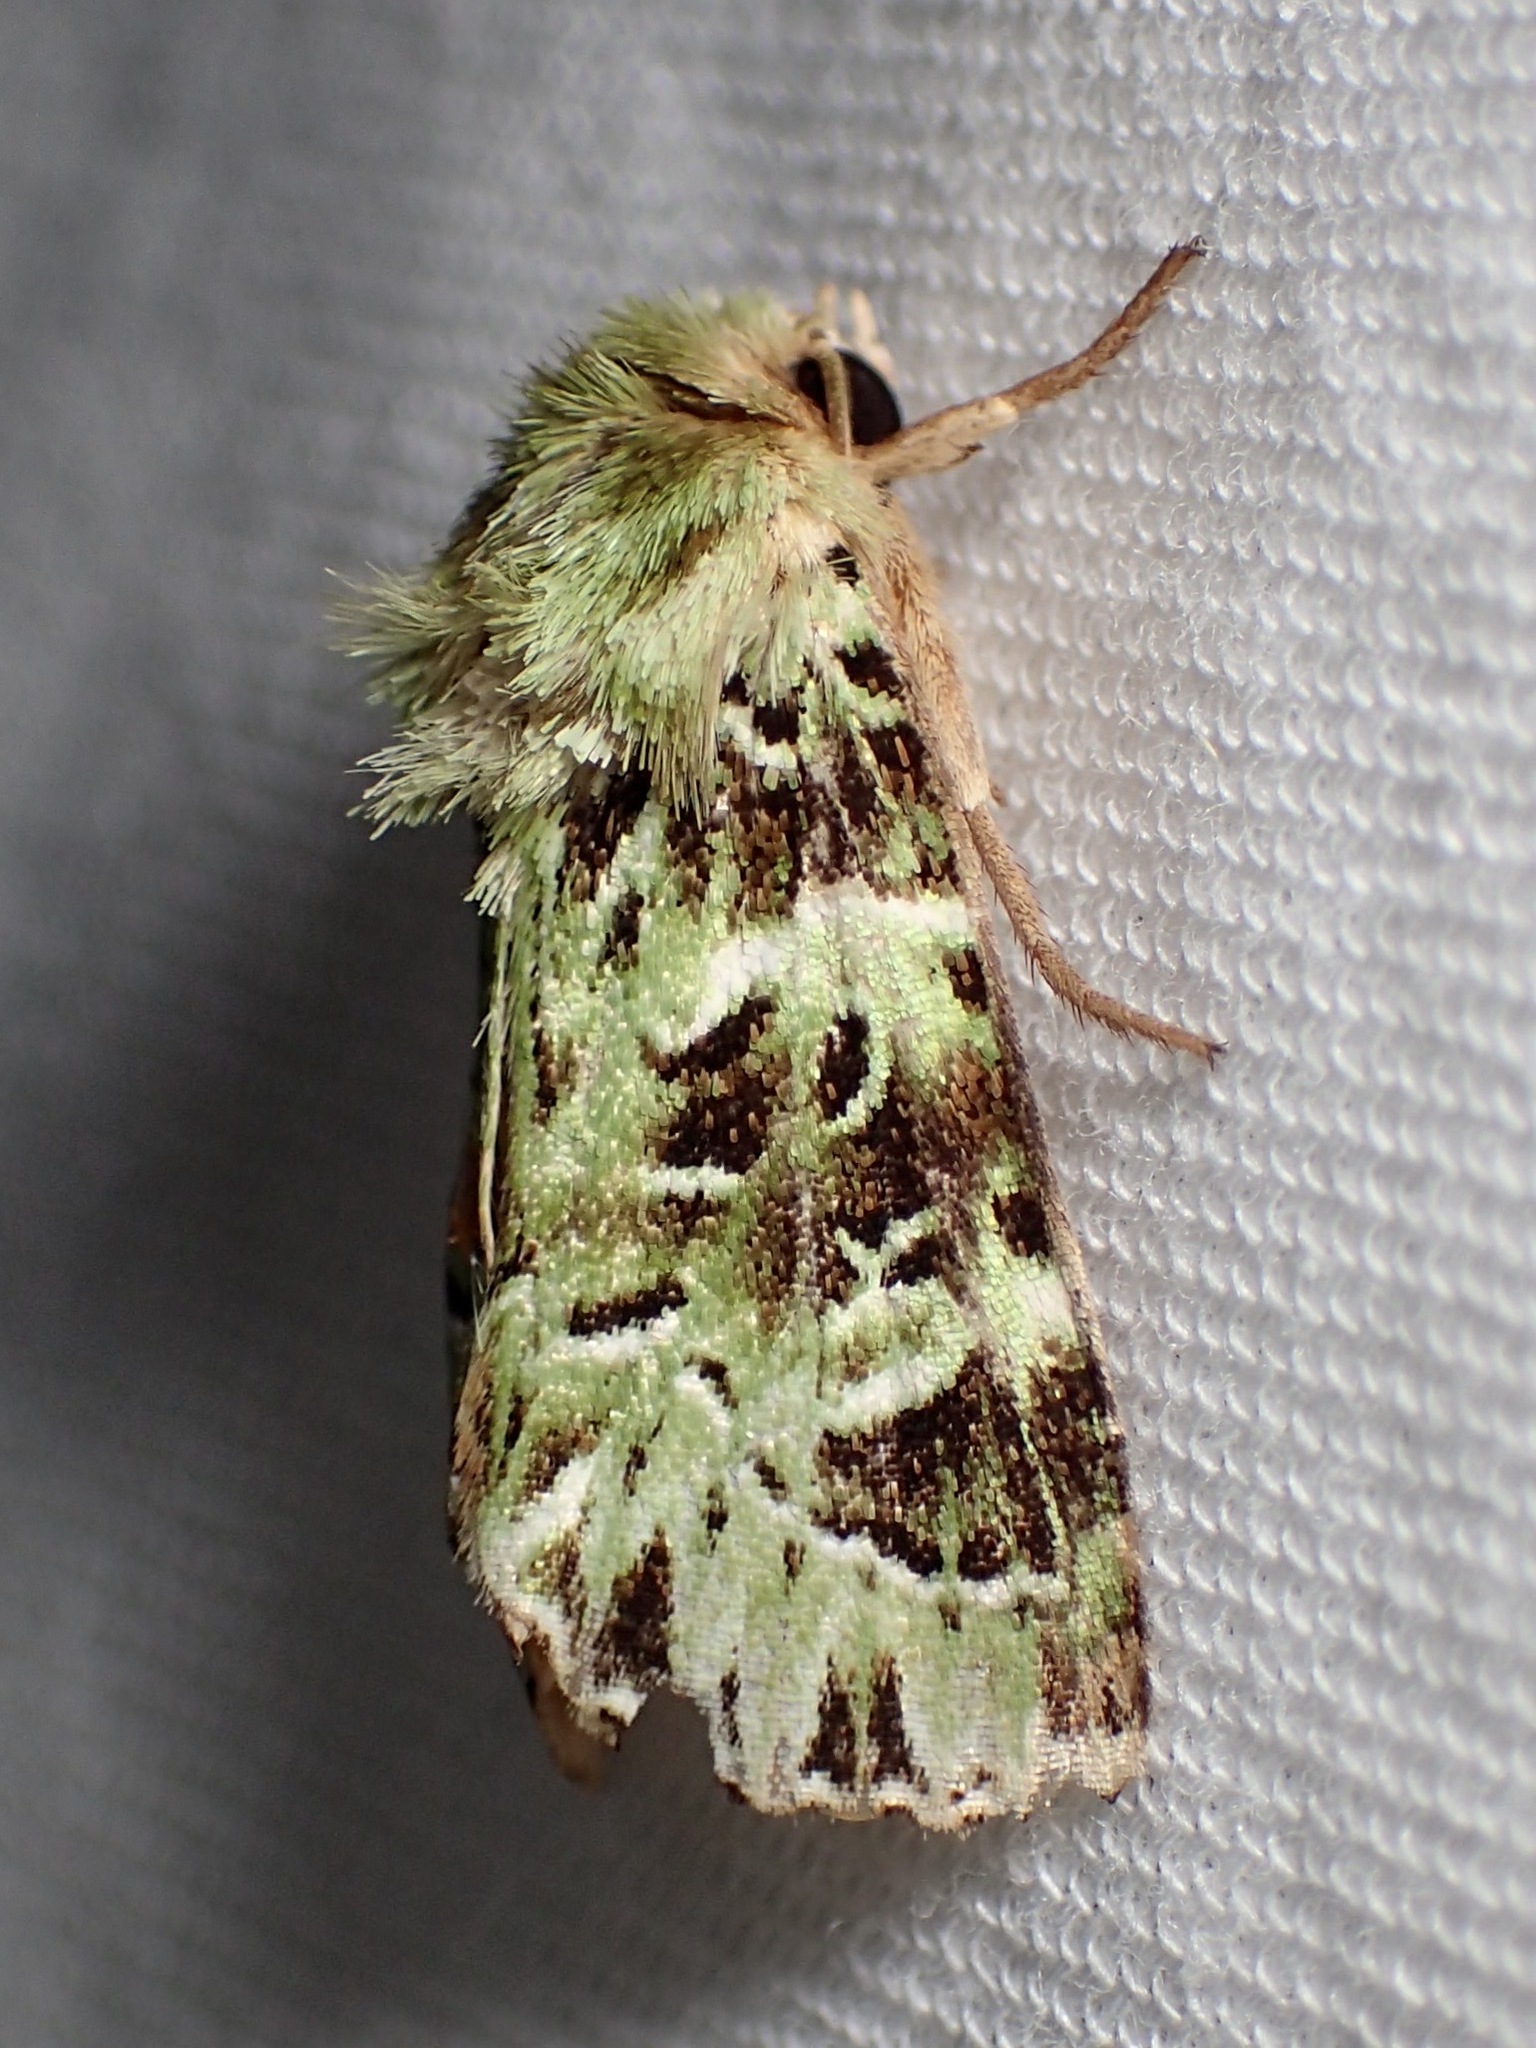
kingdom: Animalia
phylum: Arthropoda
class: Insecta
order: Lepidoptera
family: Noctuidae
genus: Pachythrix
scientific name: Pachythrix hampsoni
